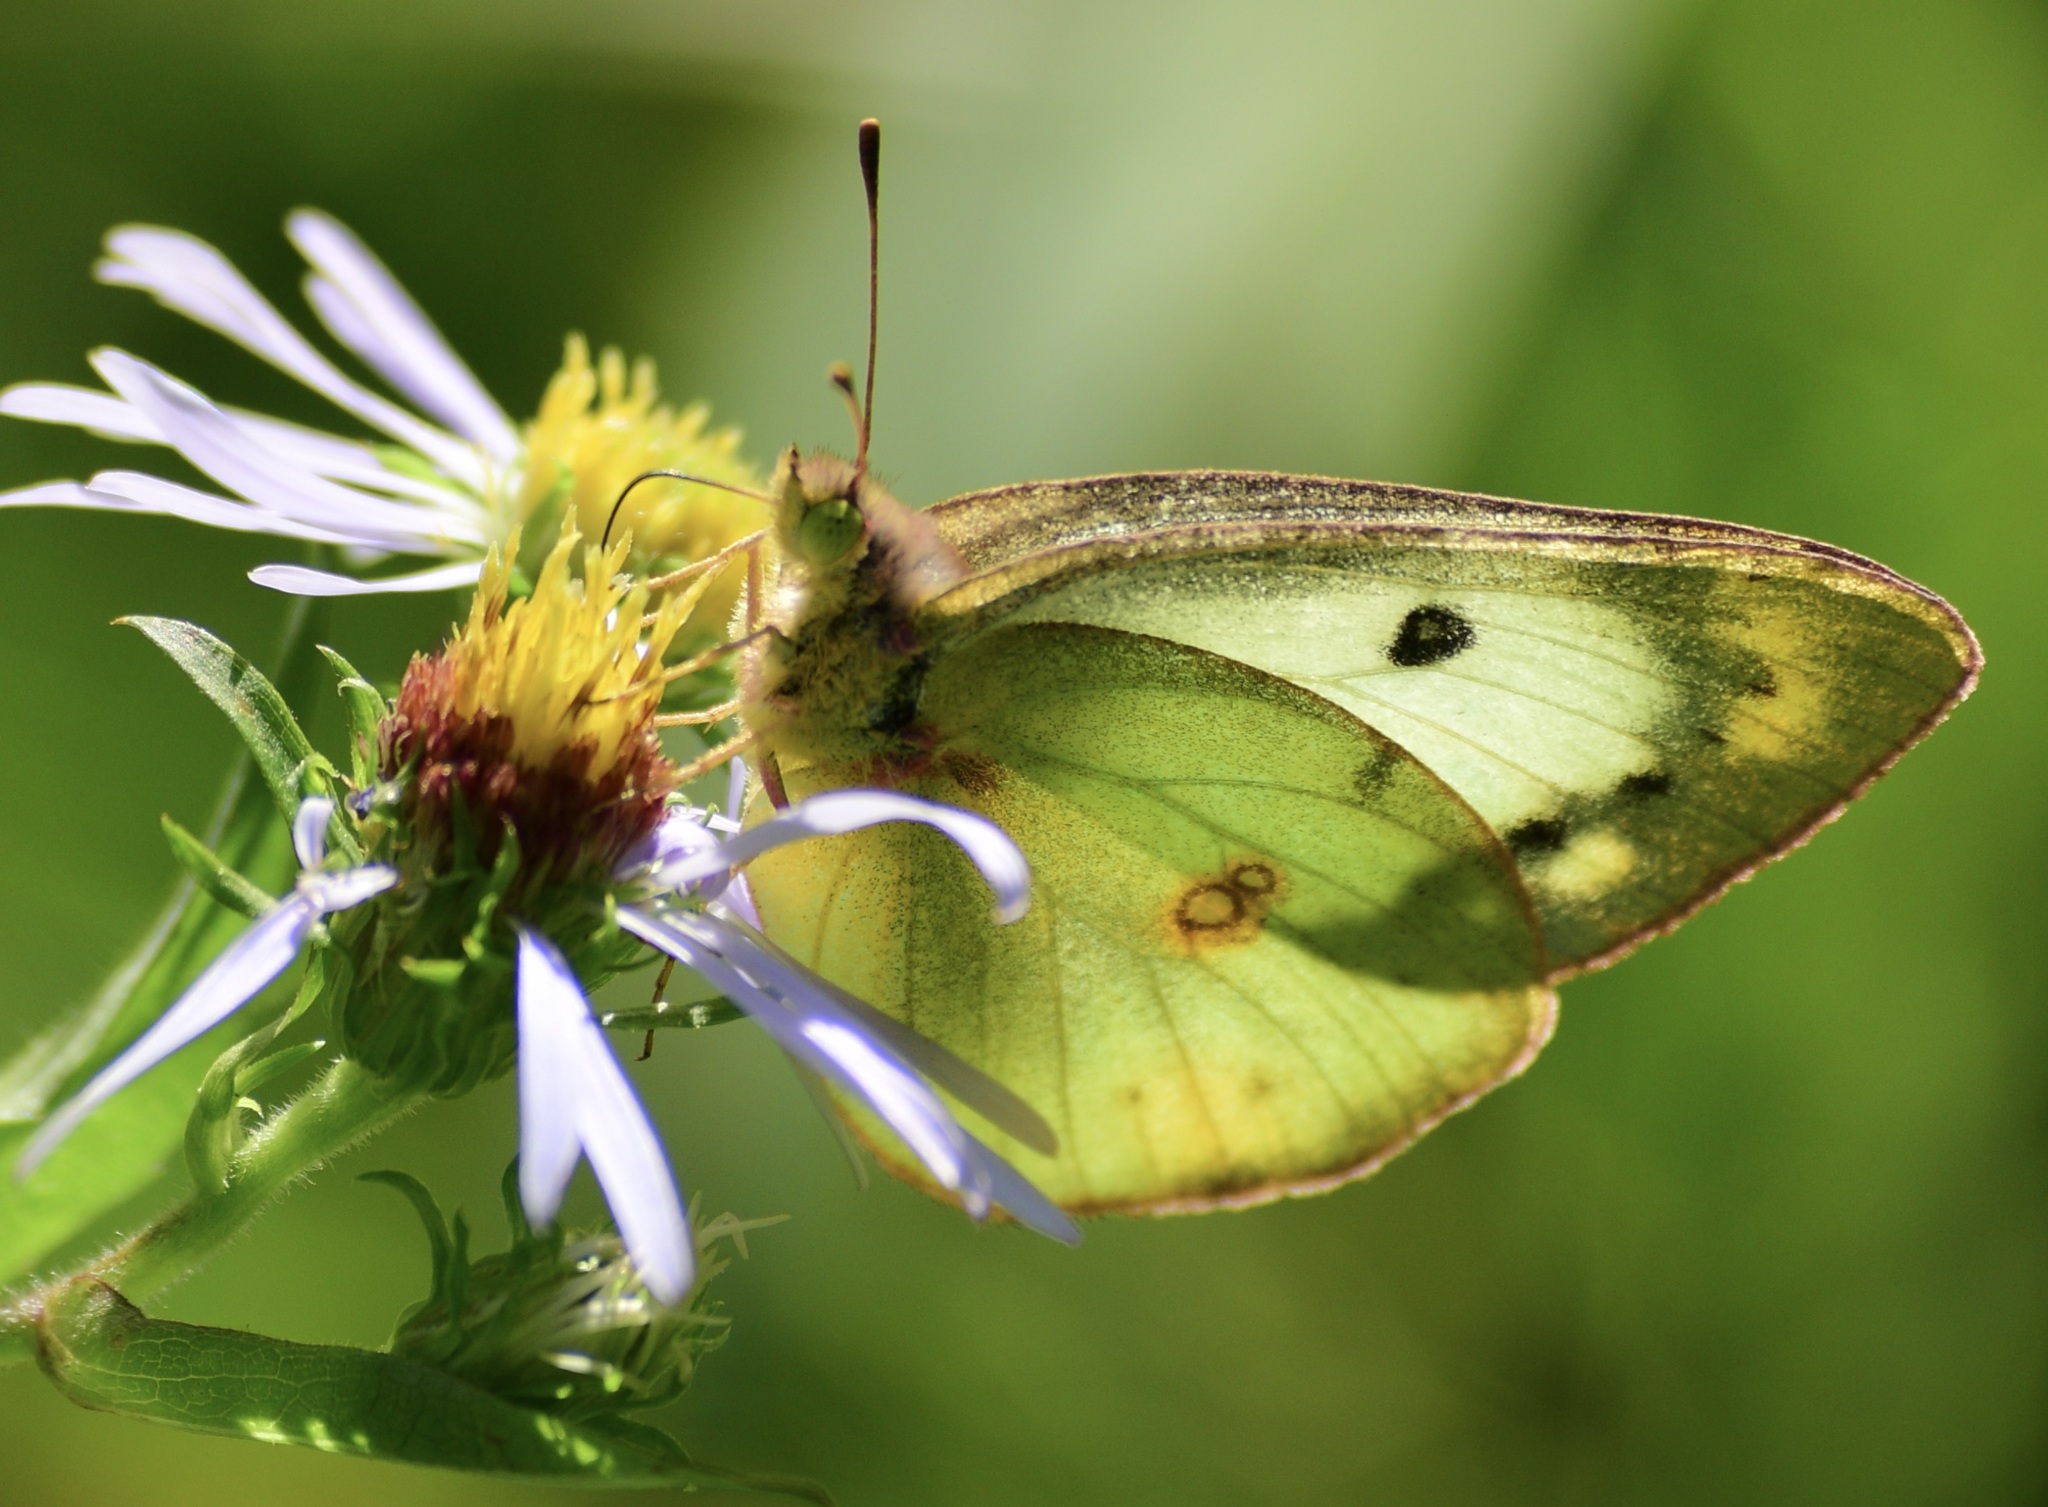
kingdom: Animalia
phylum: Arthropoda
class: Insecta
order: Lepidoptera
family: Pieridae
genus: Colias
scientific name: Colias philodice
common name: Clouded sulphur
